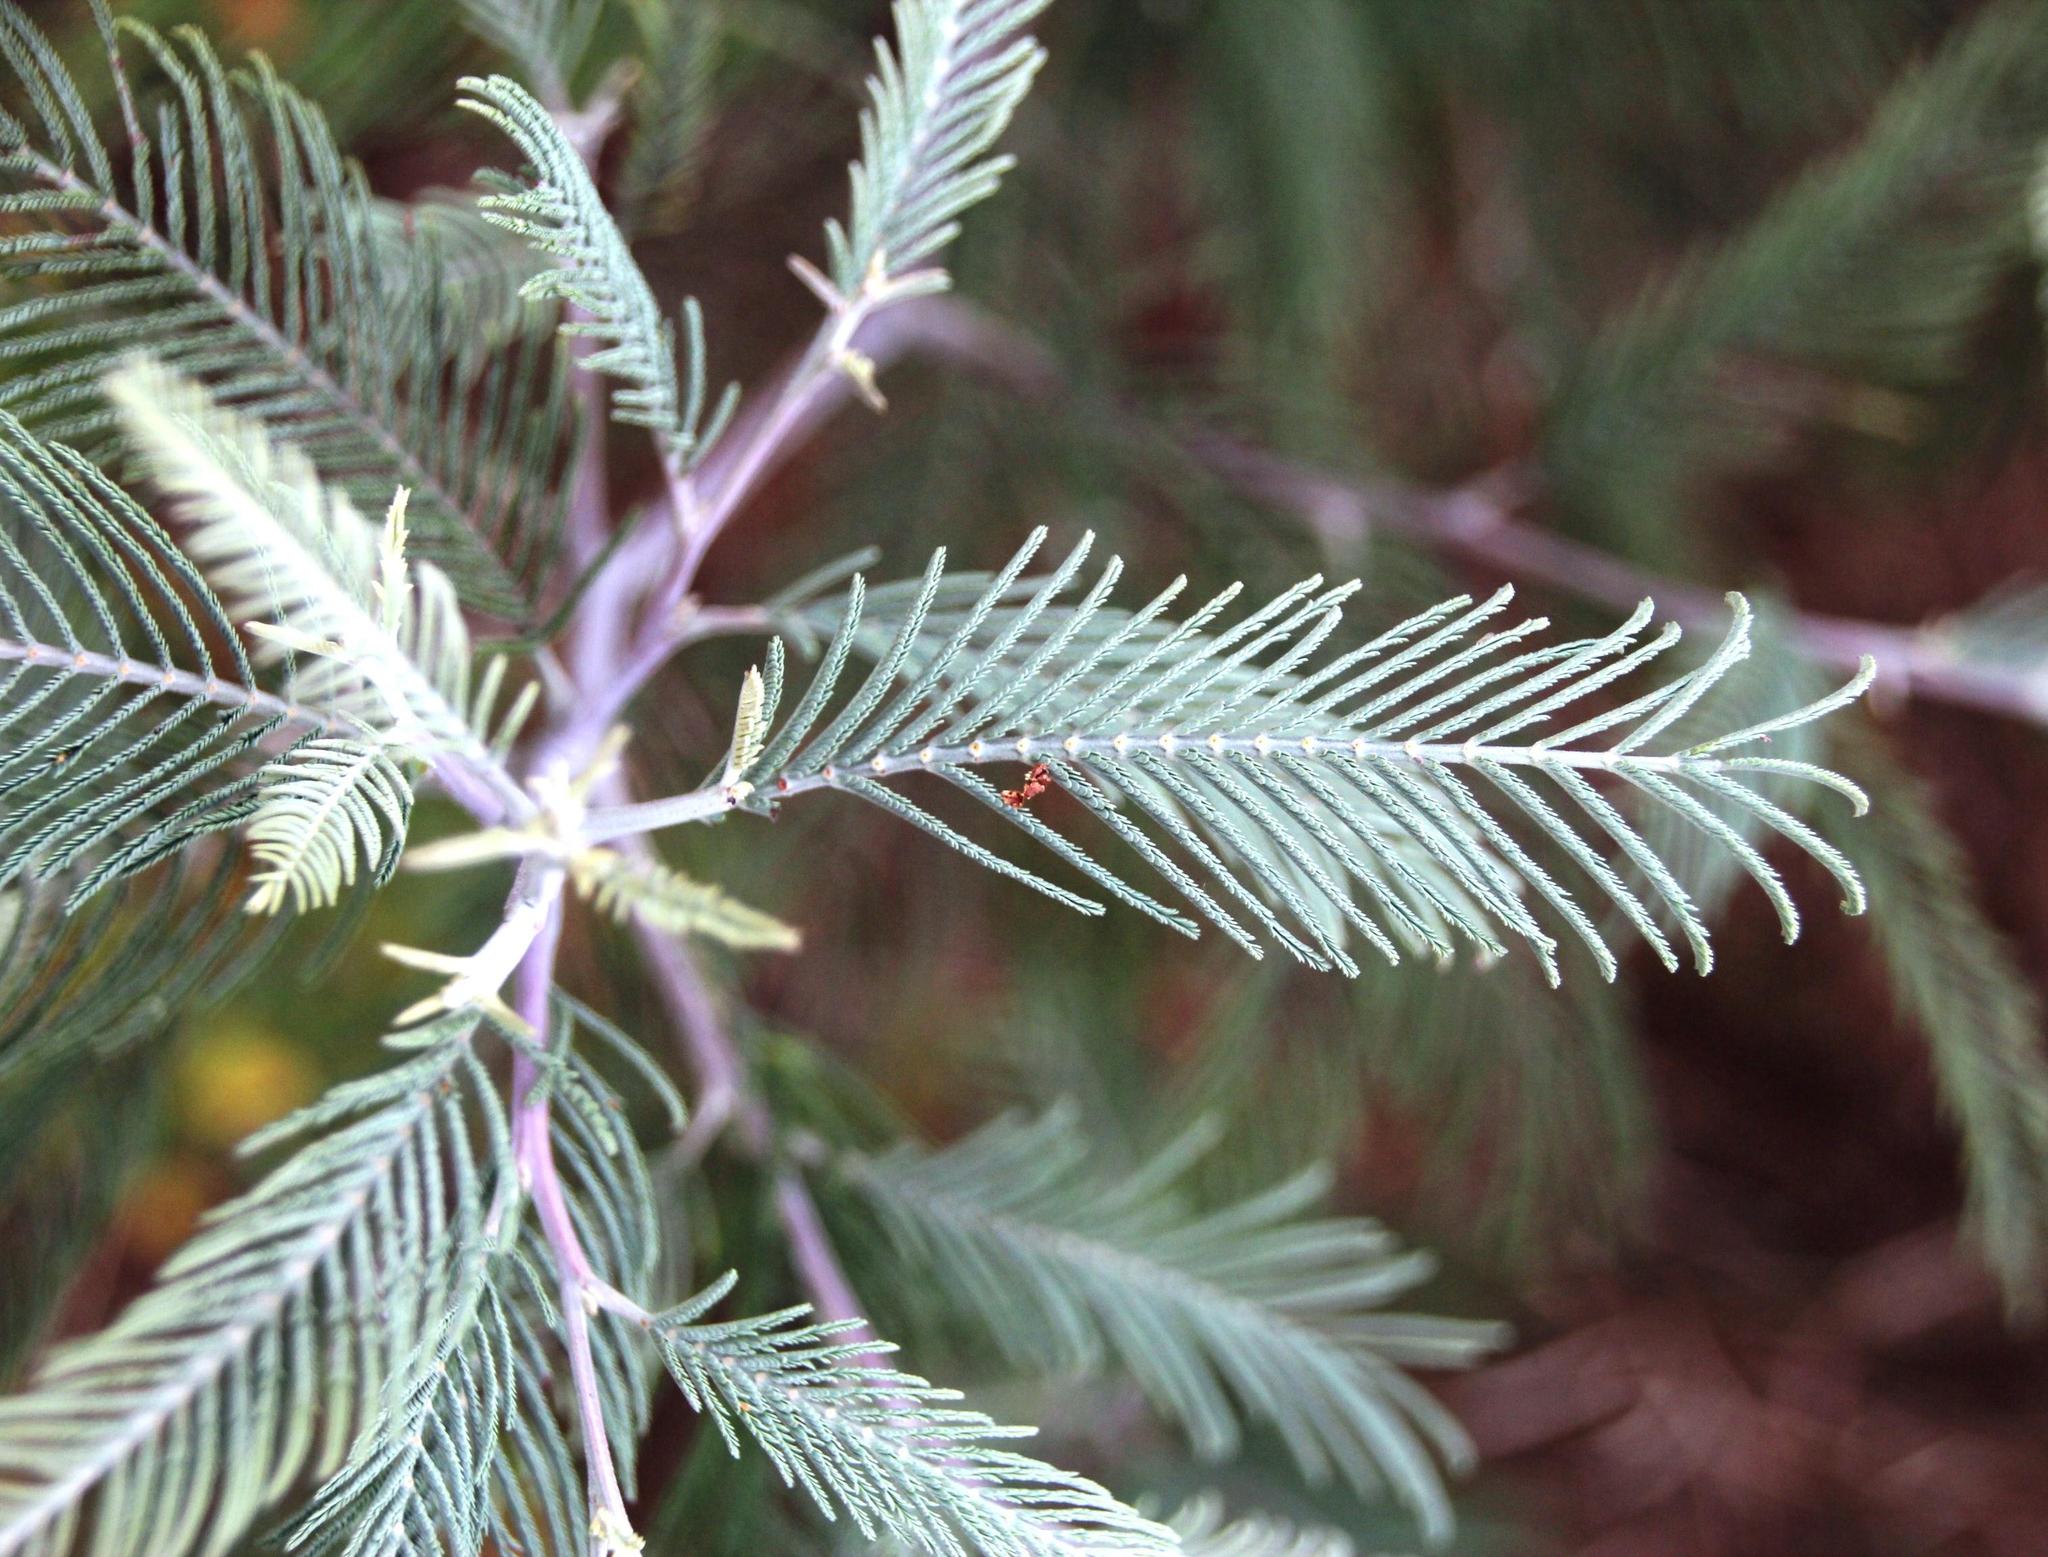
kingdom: Plantae
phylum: Tracheophyta
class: Magnoliopsida
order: Fabales
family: Fabaceae
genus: Acacia
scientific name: Acacia dealbata
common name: Silver wattle
